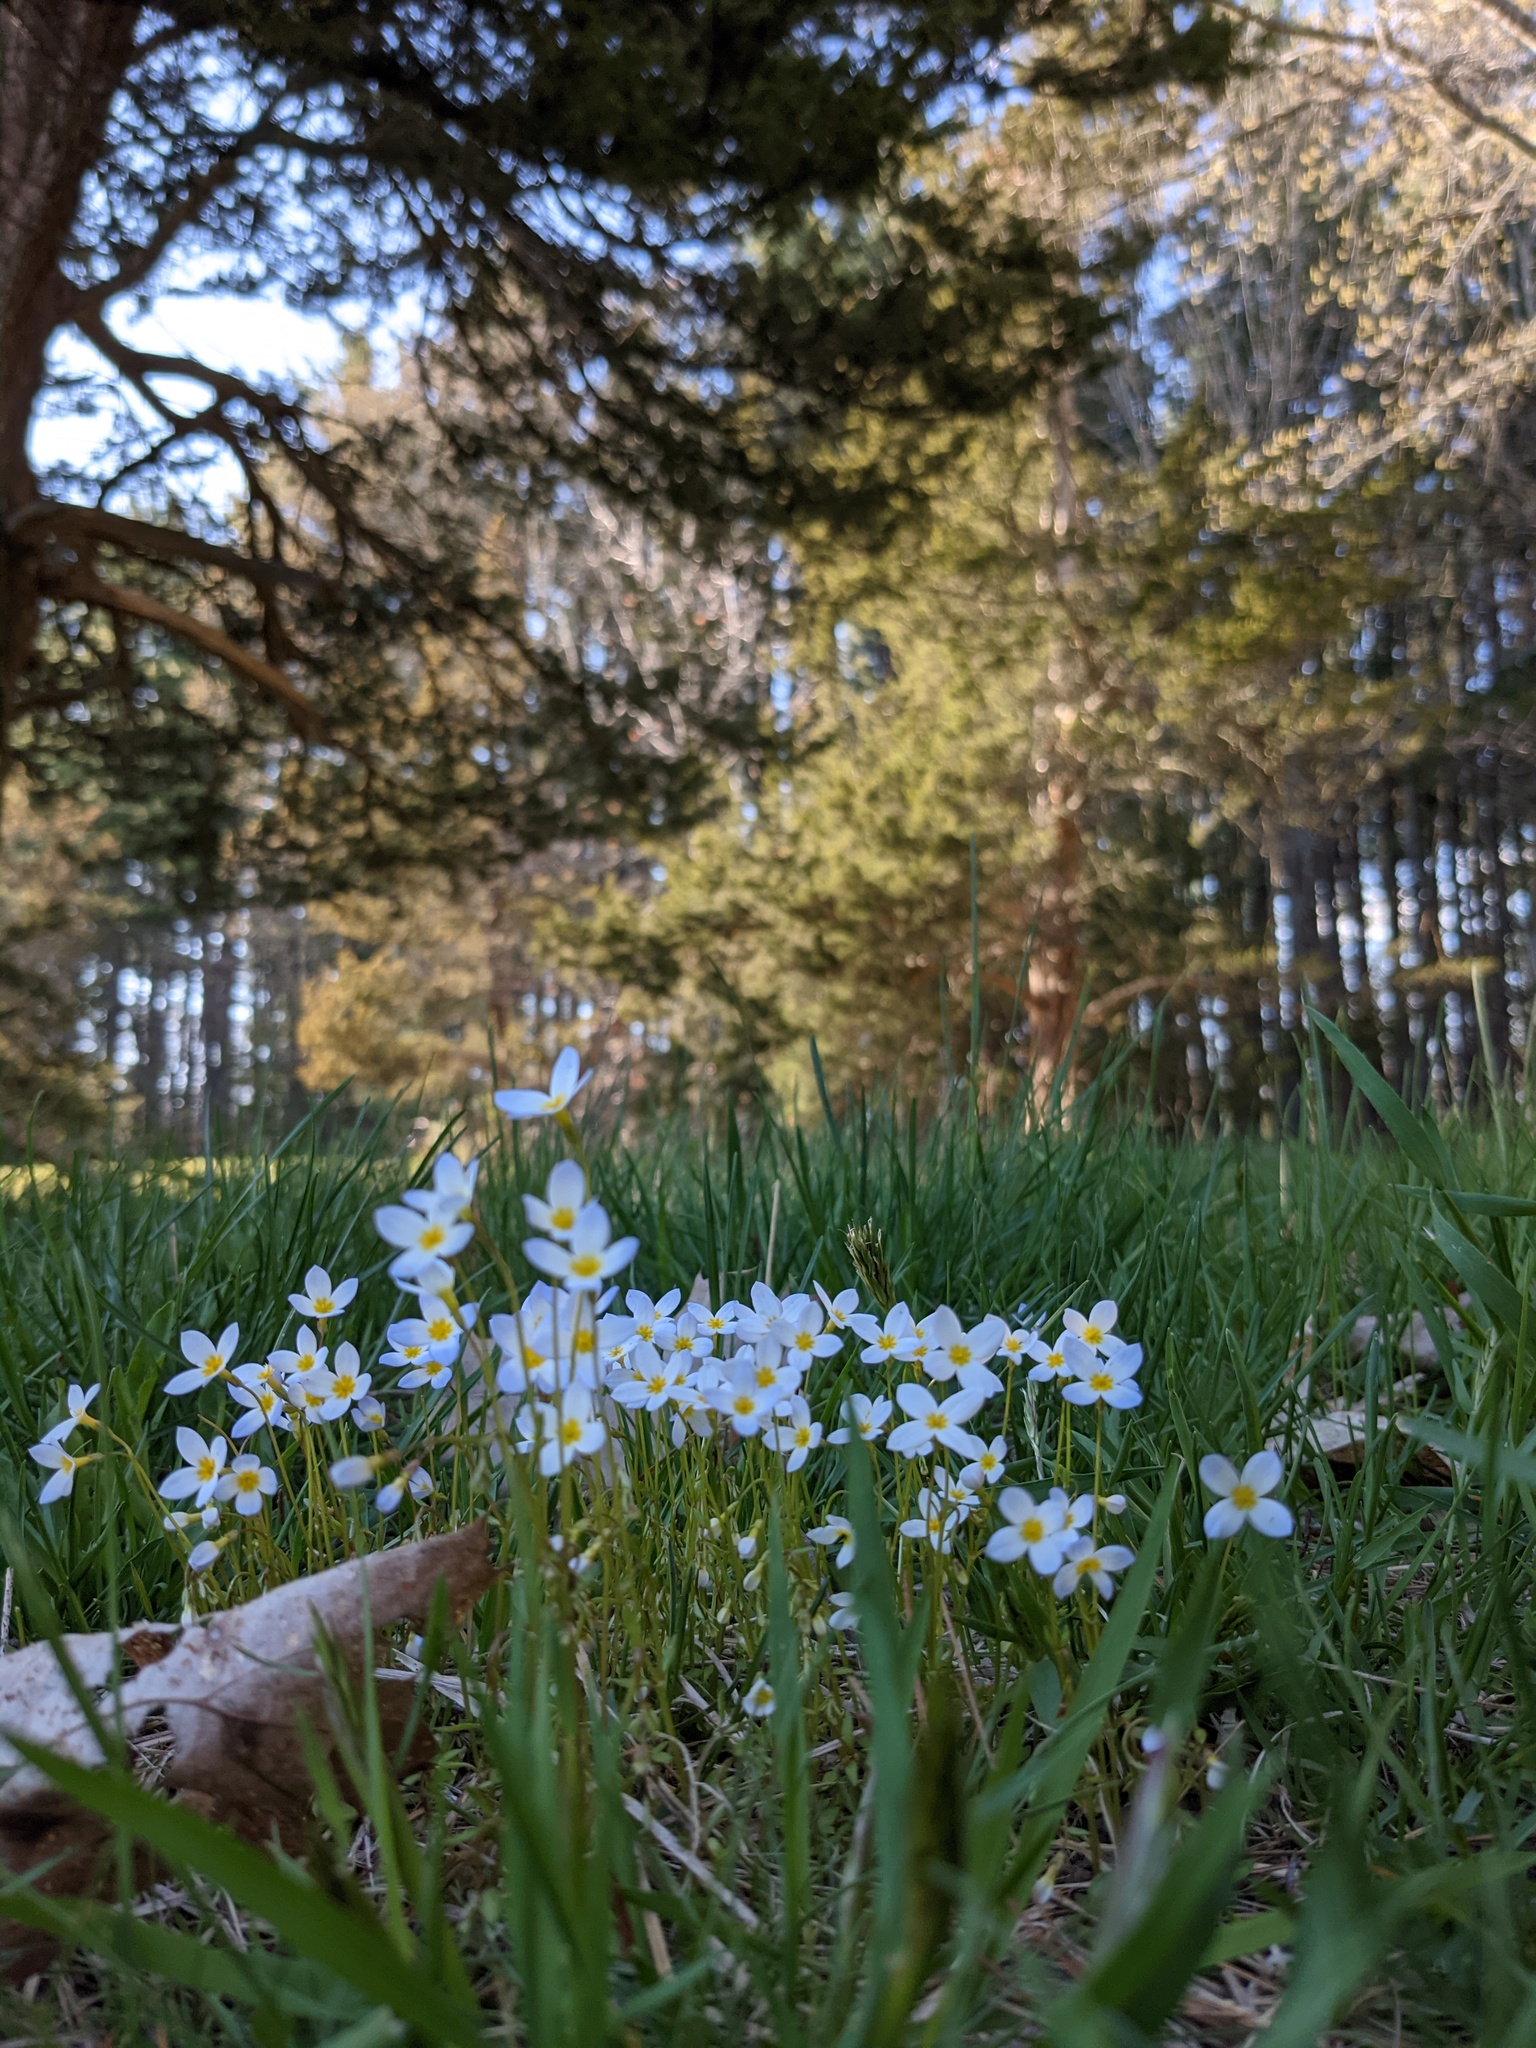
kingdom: Plantae
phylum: Tracheophyta
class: Magnoliopsida
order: Gentianales
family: Rubiaceae
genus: Houstonia
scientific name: Houstonia caerulea
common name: Bluets
